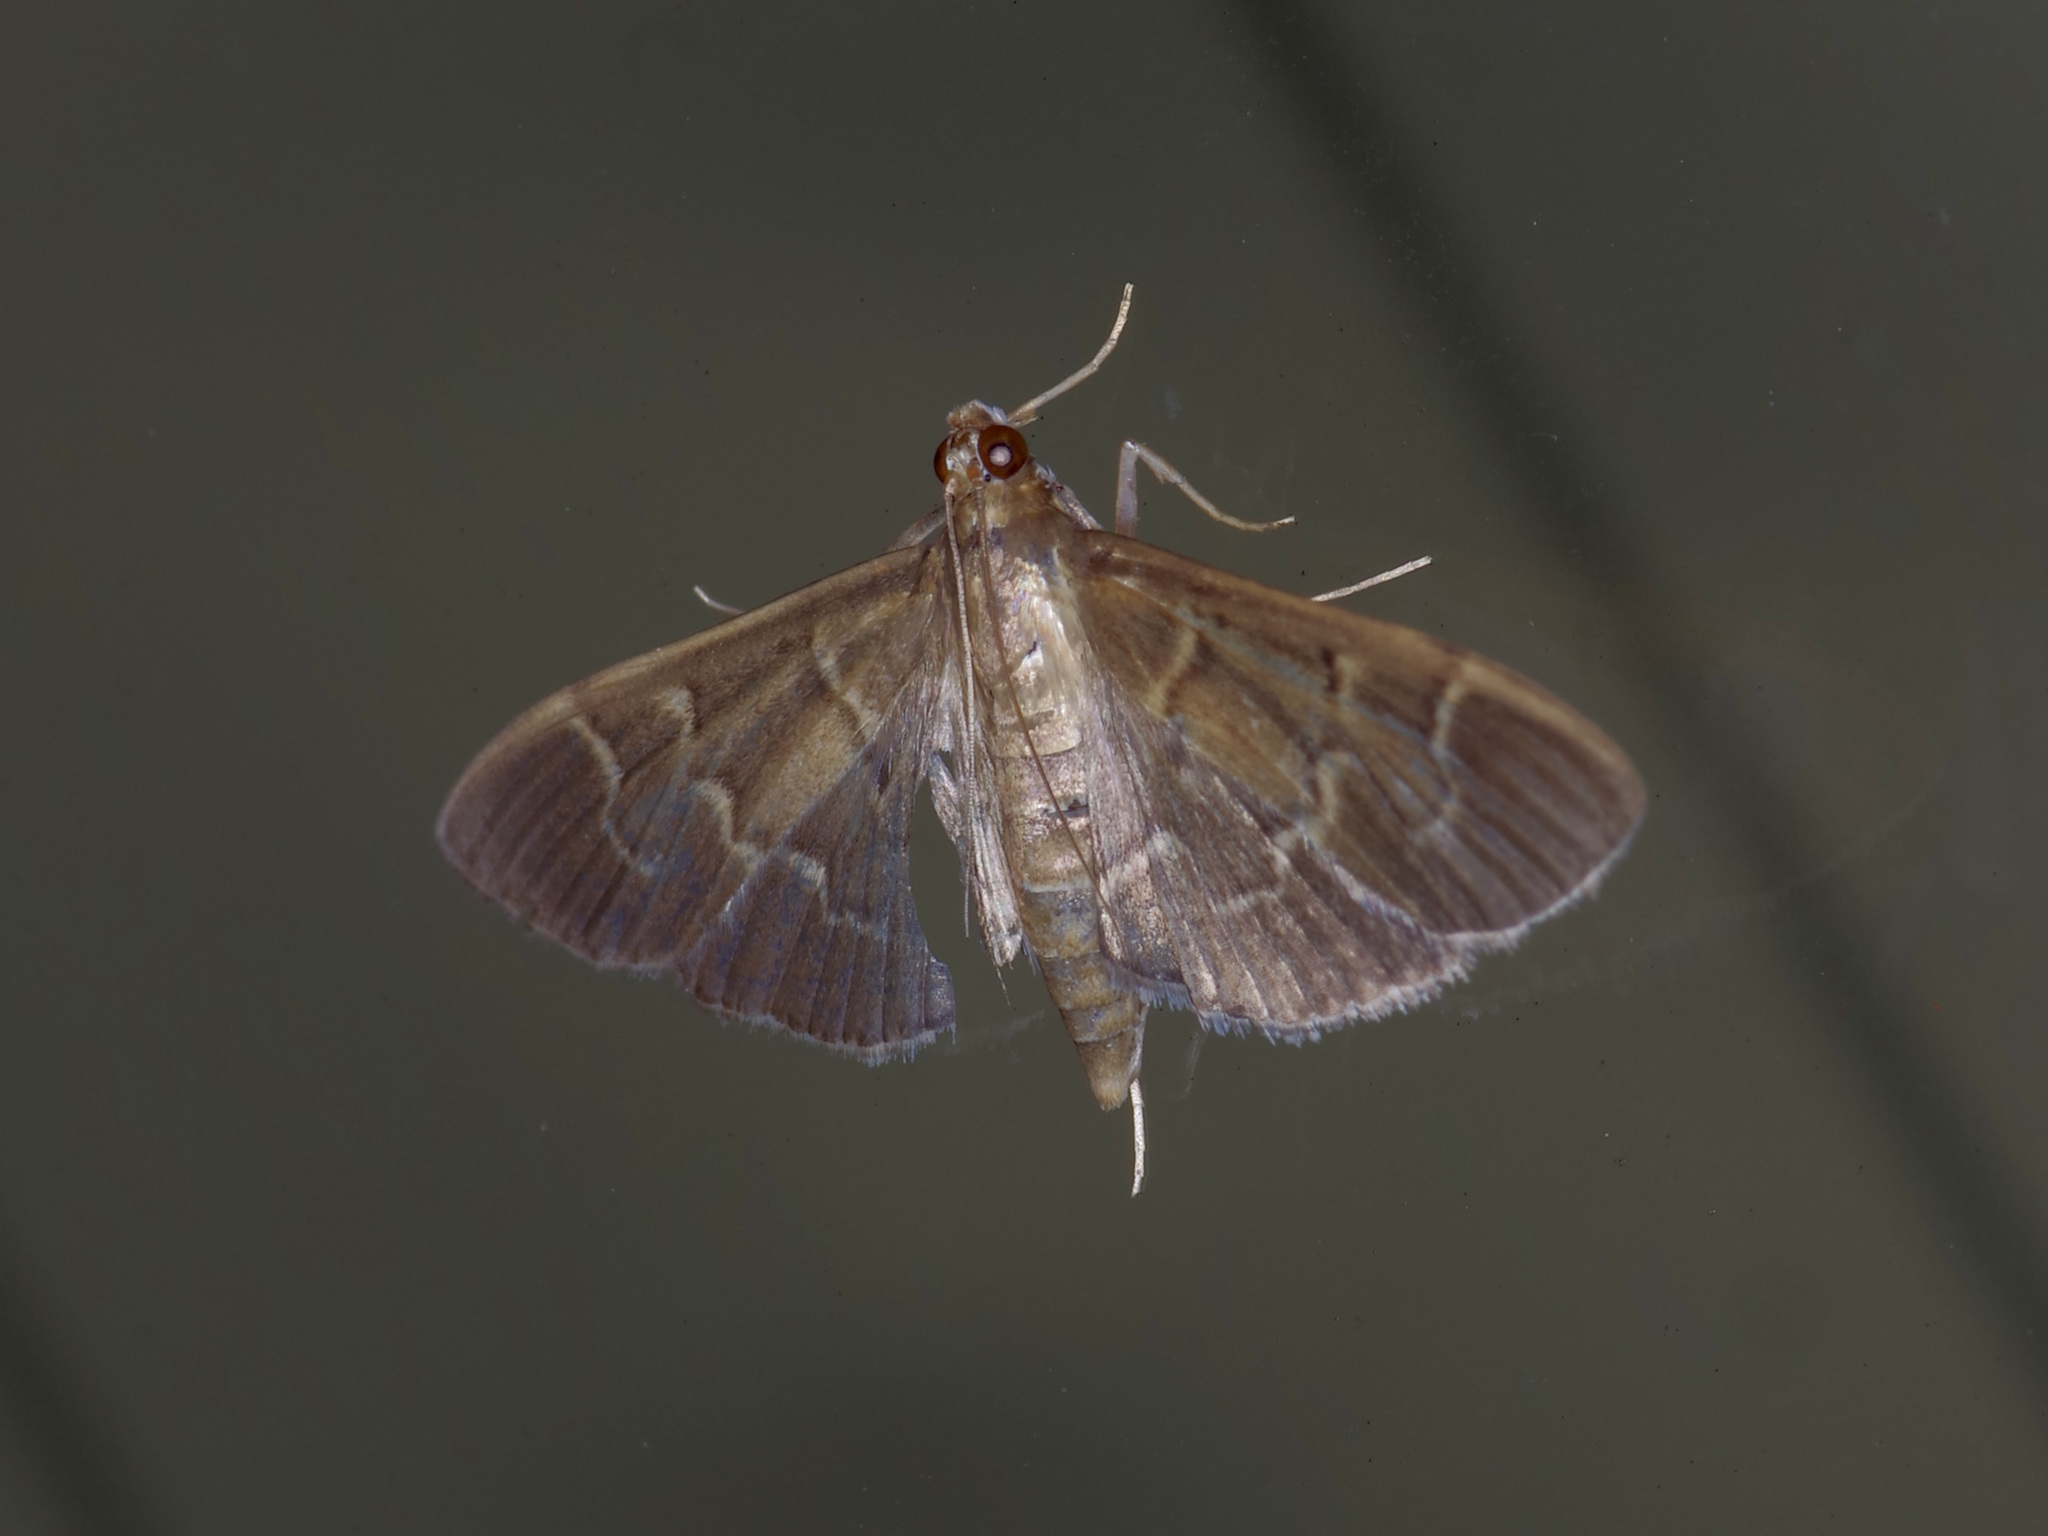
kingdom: Animalia
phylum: Arthropoda
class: Insecta
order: Lepidoptera
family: Crambidae
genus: Pilocrocis
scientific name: Pilocrocis ramentalis
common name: Scraped pilocrocis
